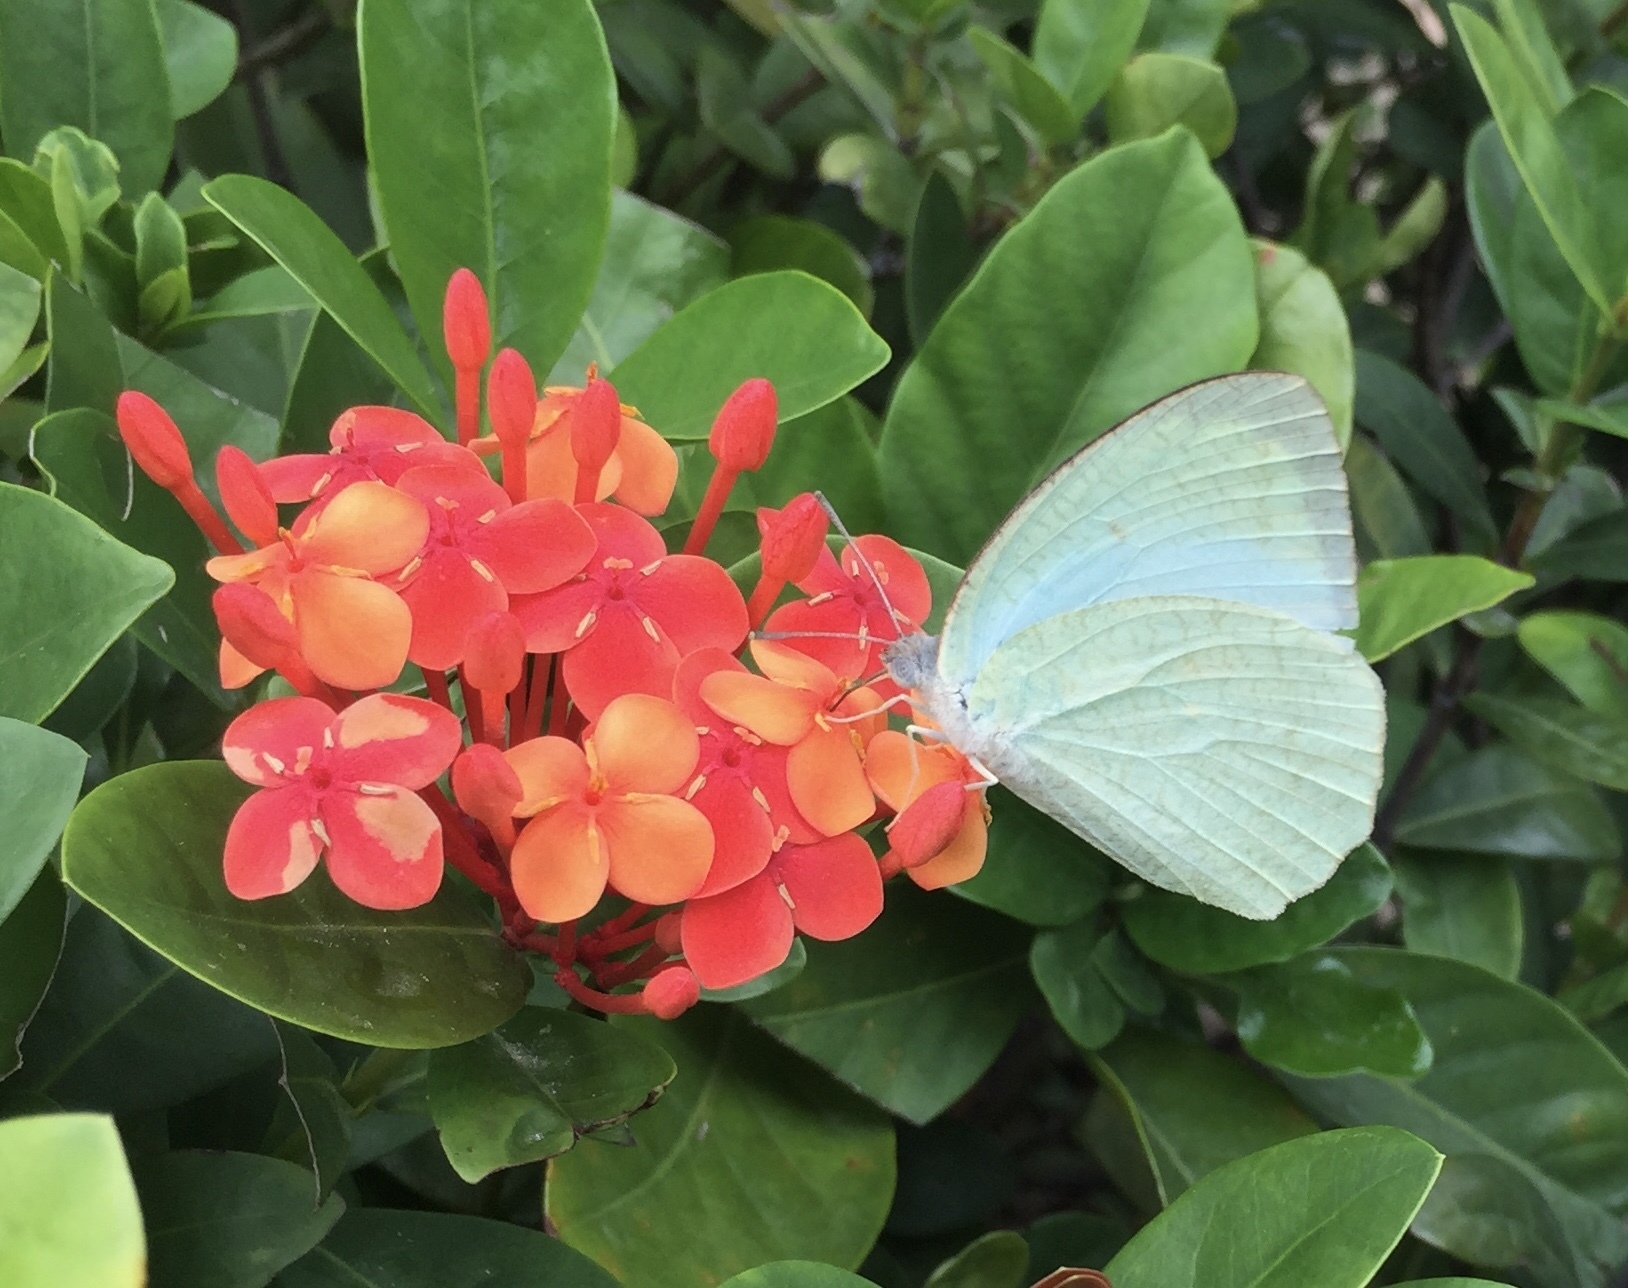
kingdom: Animalia
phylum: Arthropoda
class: Insecta
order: Lepidoptera
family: Pieridae
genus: Catopsilia
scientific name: Catopsilia pyranthe
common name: Mottled emigrant
